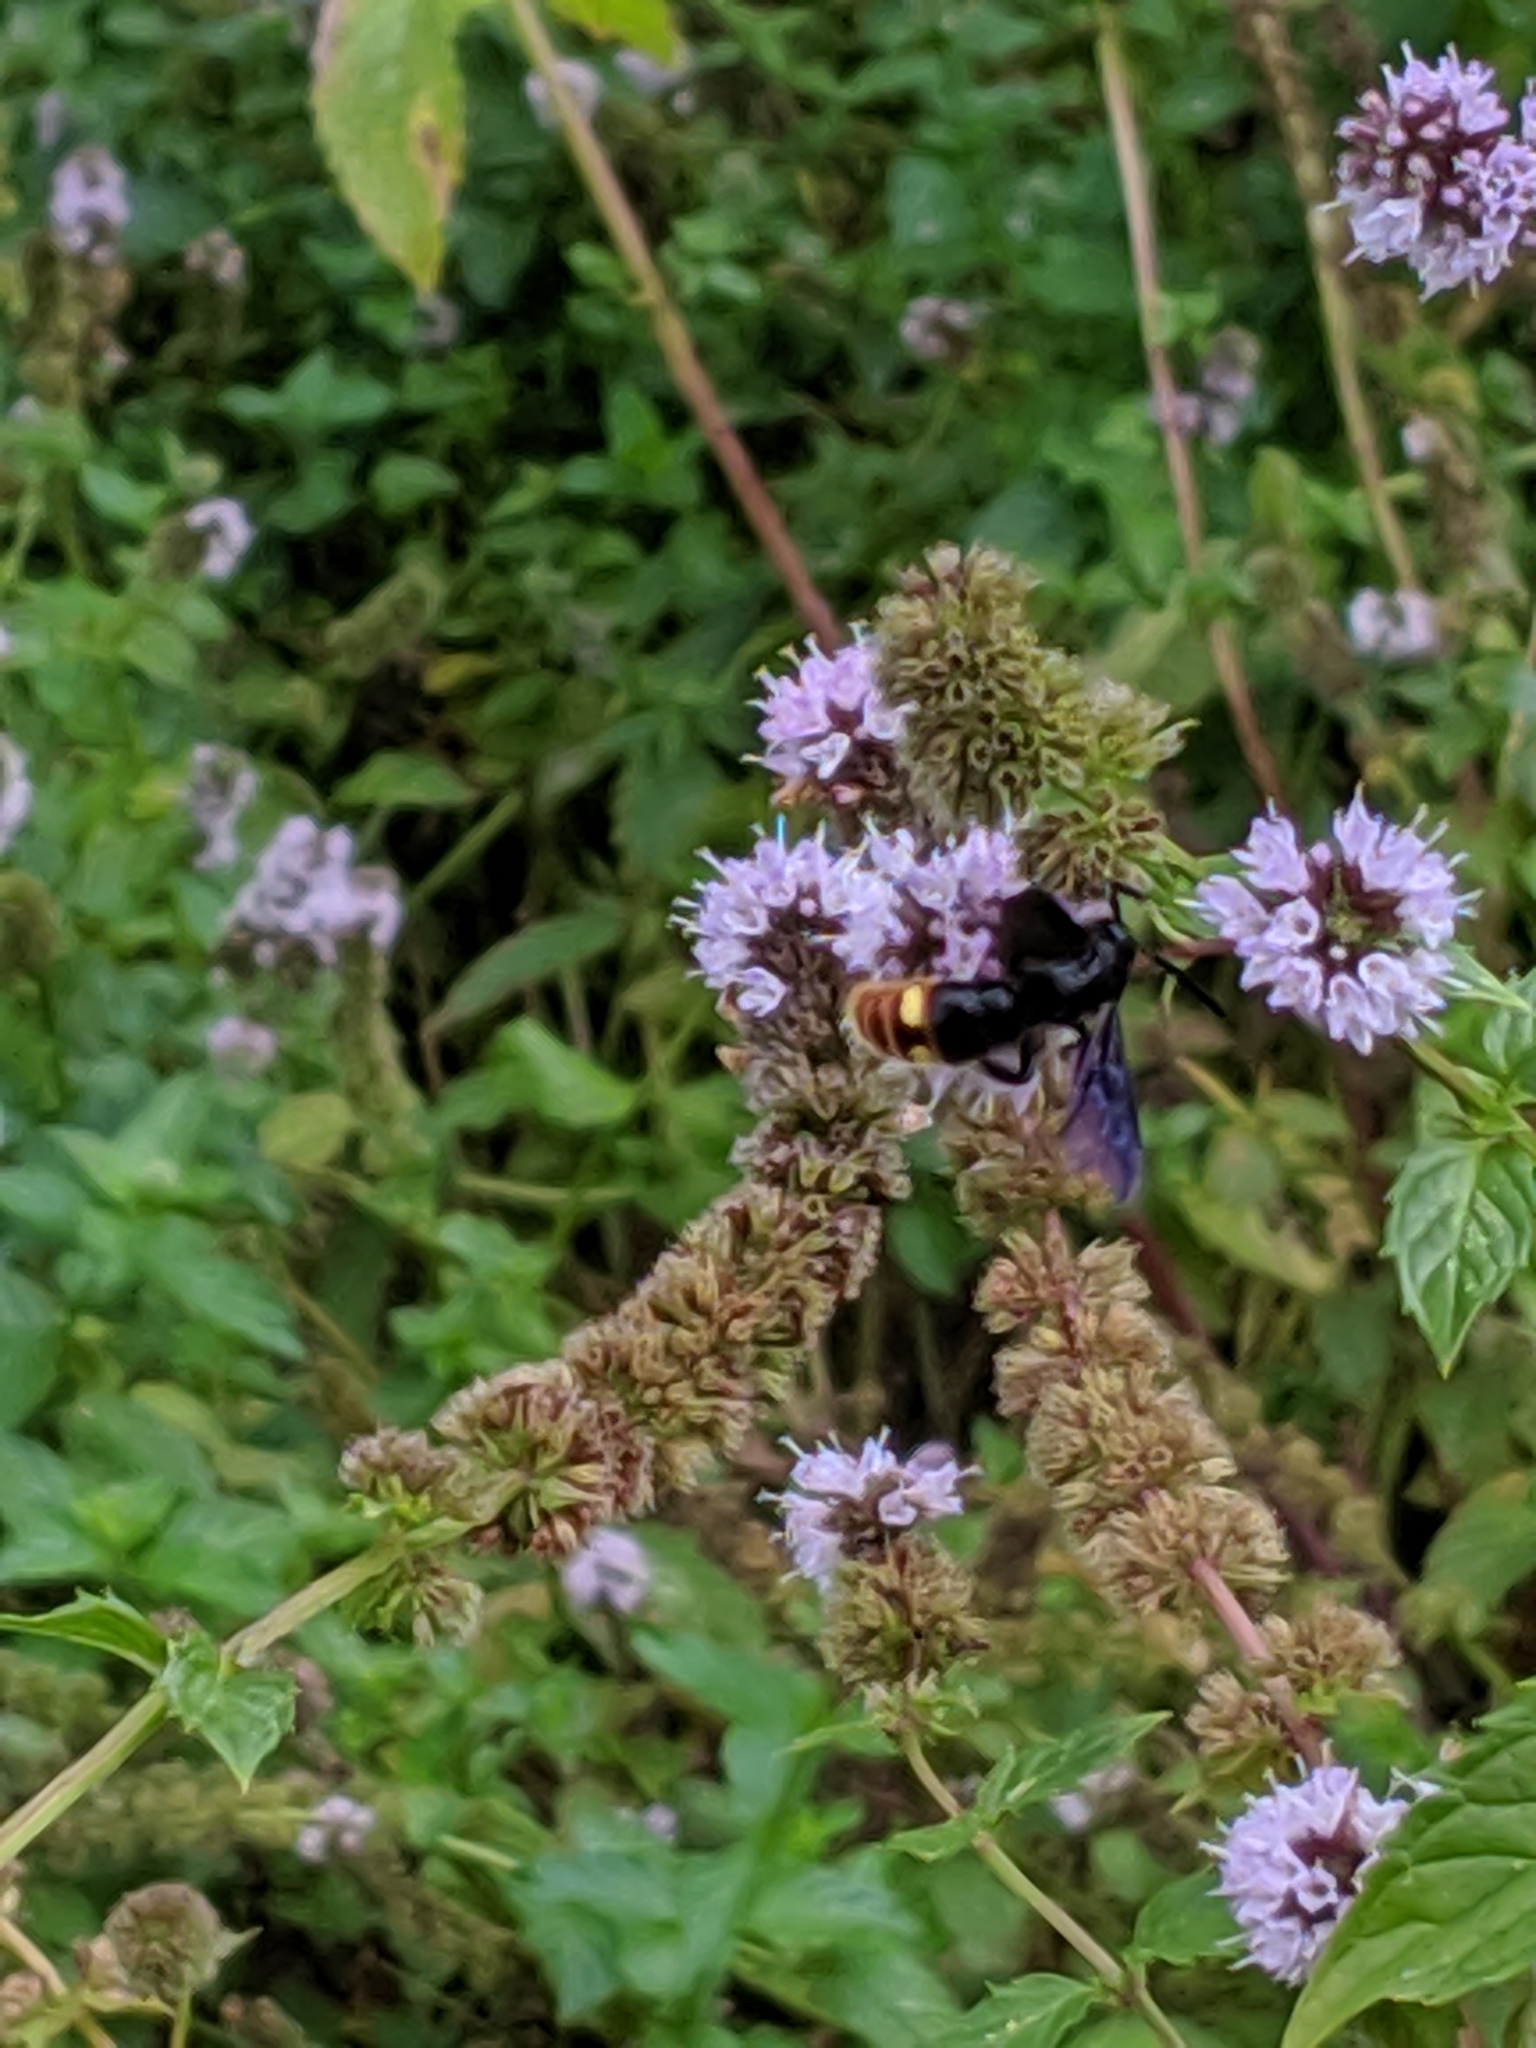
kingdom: Animalia
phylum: Arthropoda
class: Insecta
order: Hymenoptera
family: Scoliidae
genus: Scolia
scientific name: Scolia dubia
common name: Blue-winged scoliid wasp
